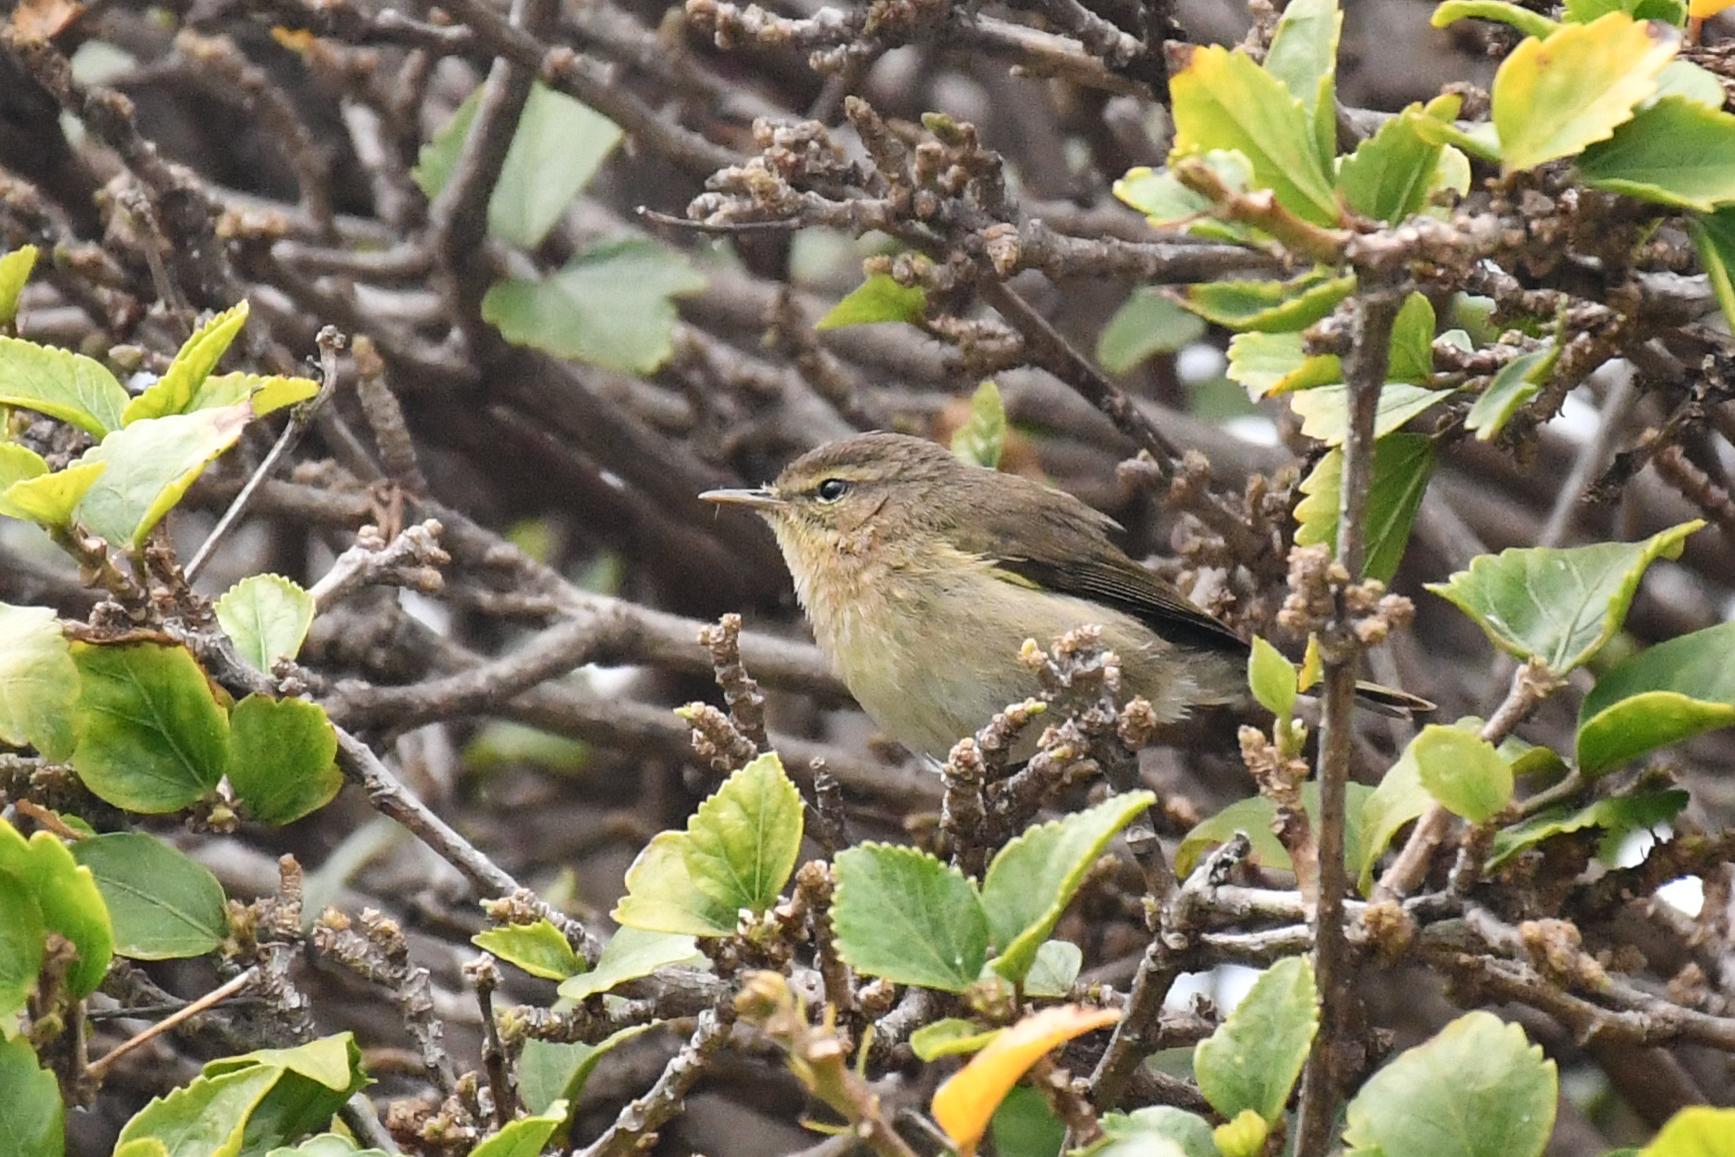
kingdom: Animalia
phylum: Chordata
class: Aves
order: Passeriformes
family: Phylloscopidae
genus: Phylloscopus
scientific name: Phylloscopus canariensis
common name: Canary islands chiffchaff
